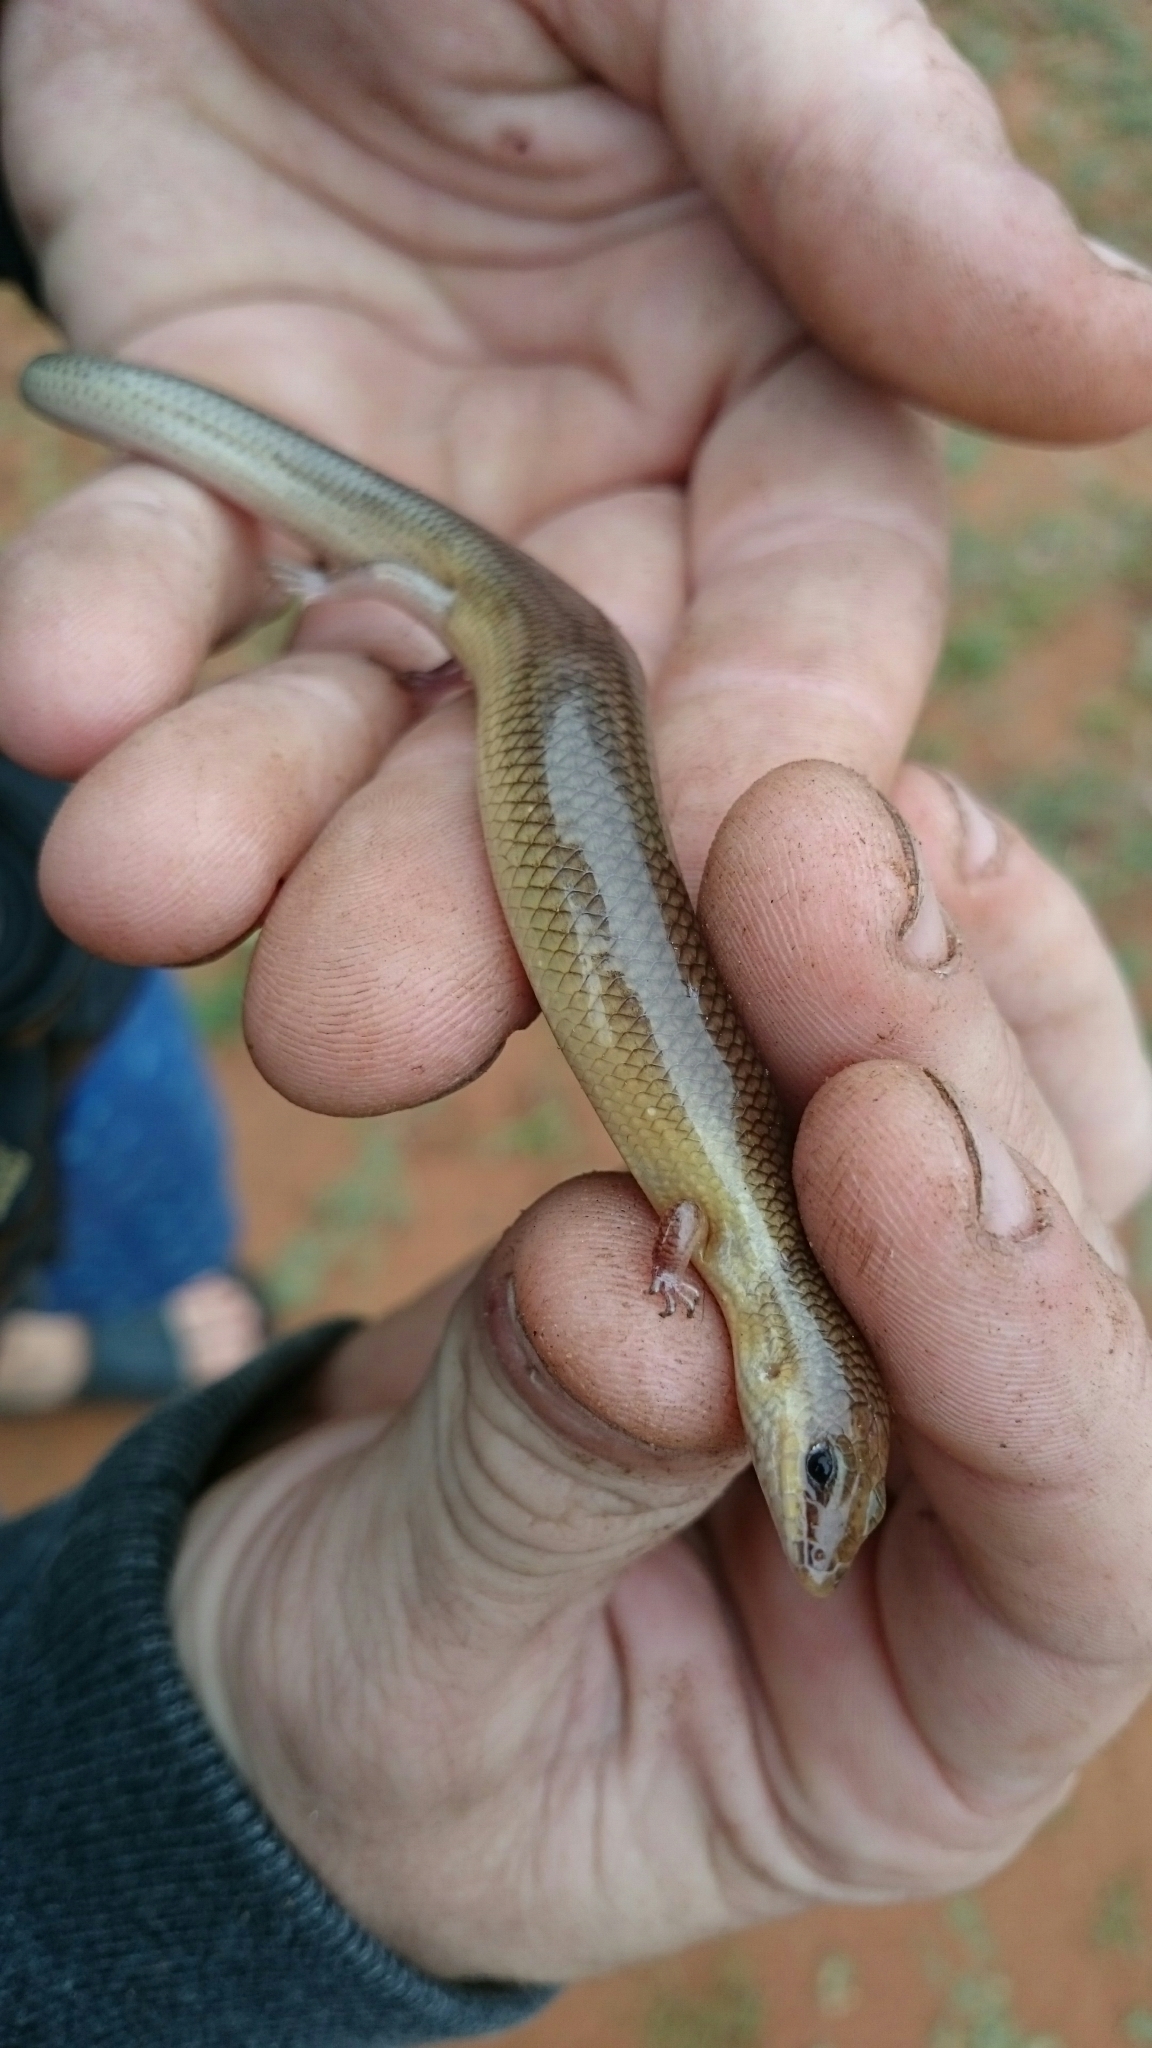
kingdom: Animalia
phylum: Chordata
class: Squamata
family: Scincidae
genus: Mochlus
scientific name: Mochlus sundevallii
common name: Peters' eyelid skink
